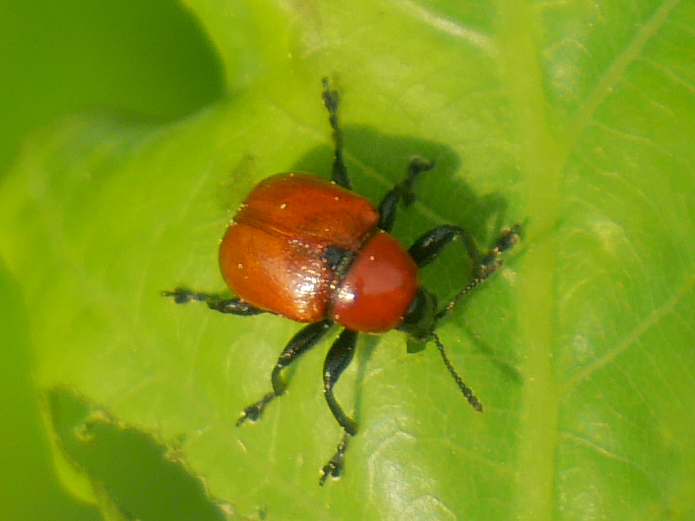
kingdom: Animalia
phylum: Arthropoda
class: Insecta
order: Coleoptera
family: Attelabidae
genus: Attelabus
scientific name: Attelabus nitens
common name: Oak leaf-roller
